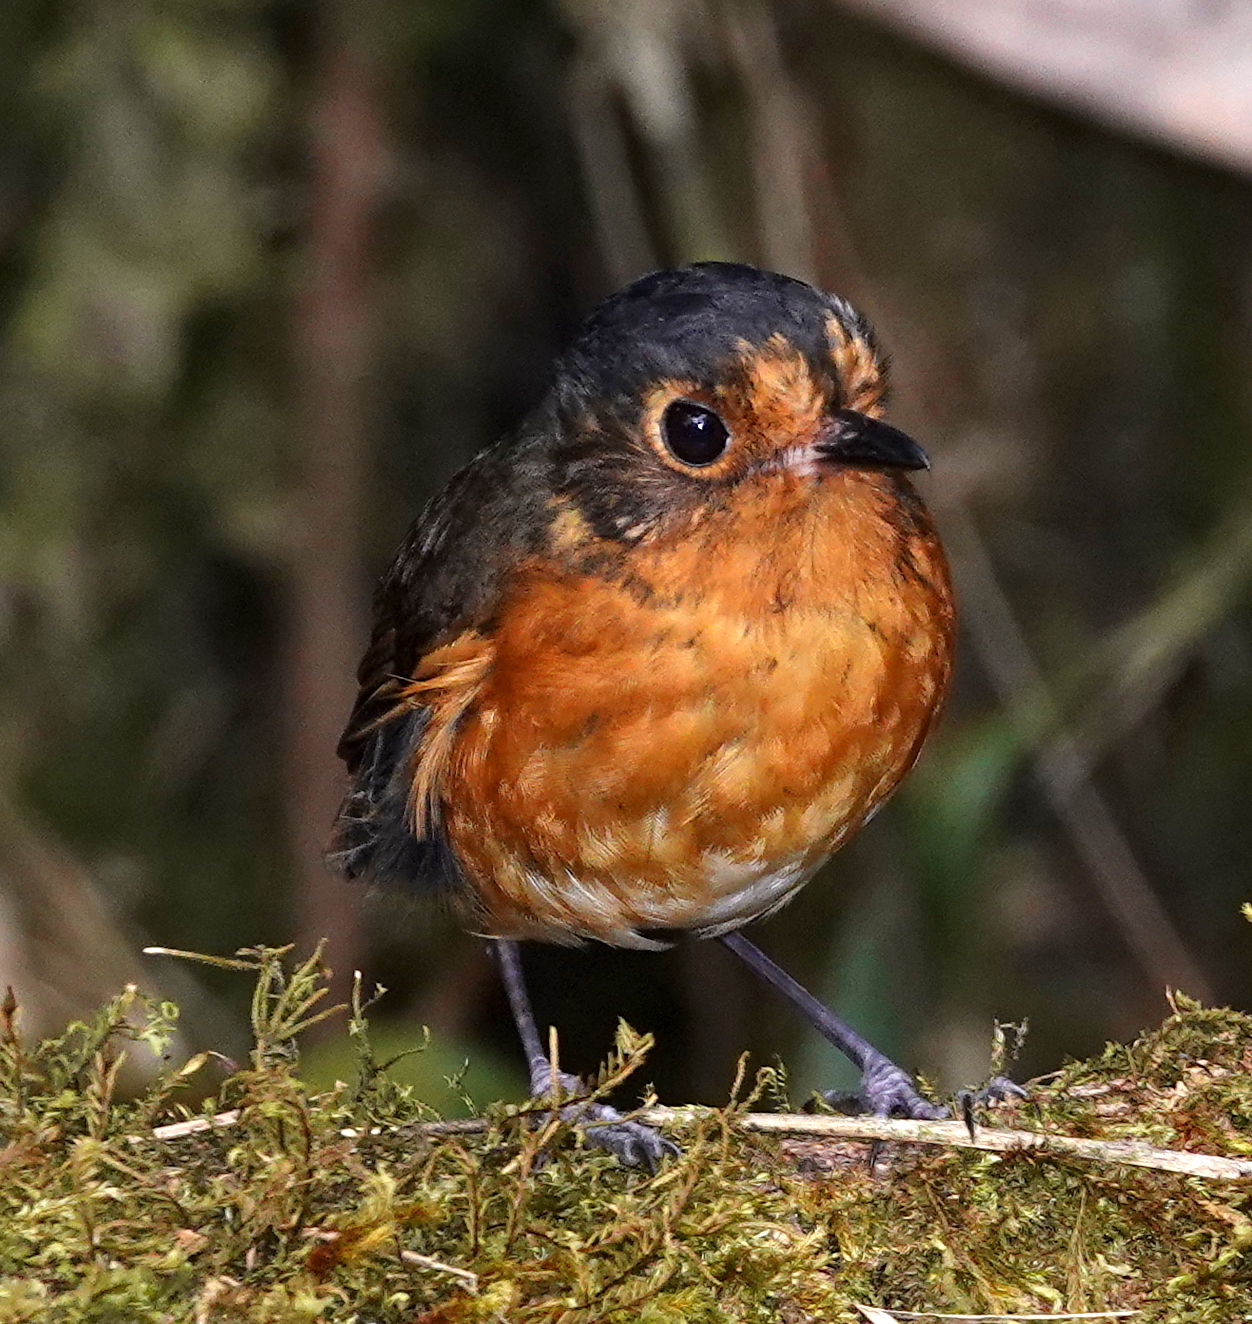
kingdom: Animalia
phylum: Chordata
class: Aves
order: Passeriformes
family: Grallariidae
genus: Grallaricula
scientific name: Grallaricula nana
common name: Slaty-crowned antpitta
